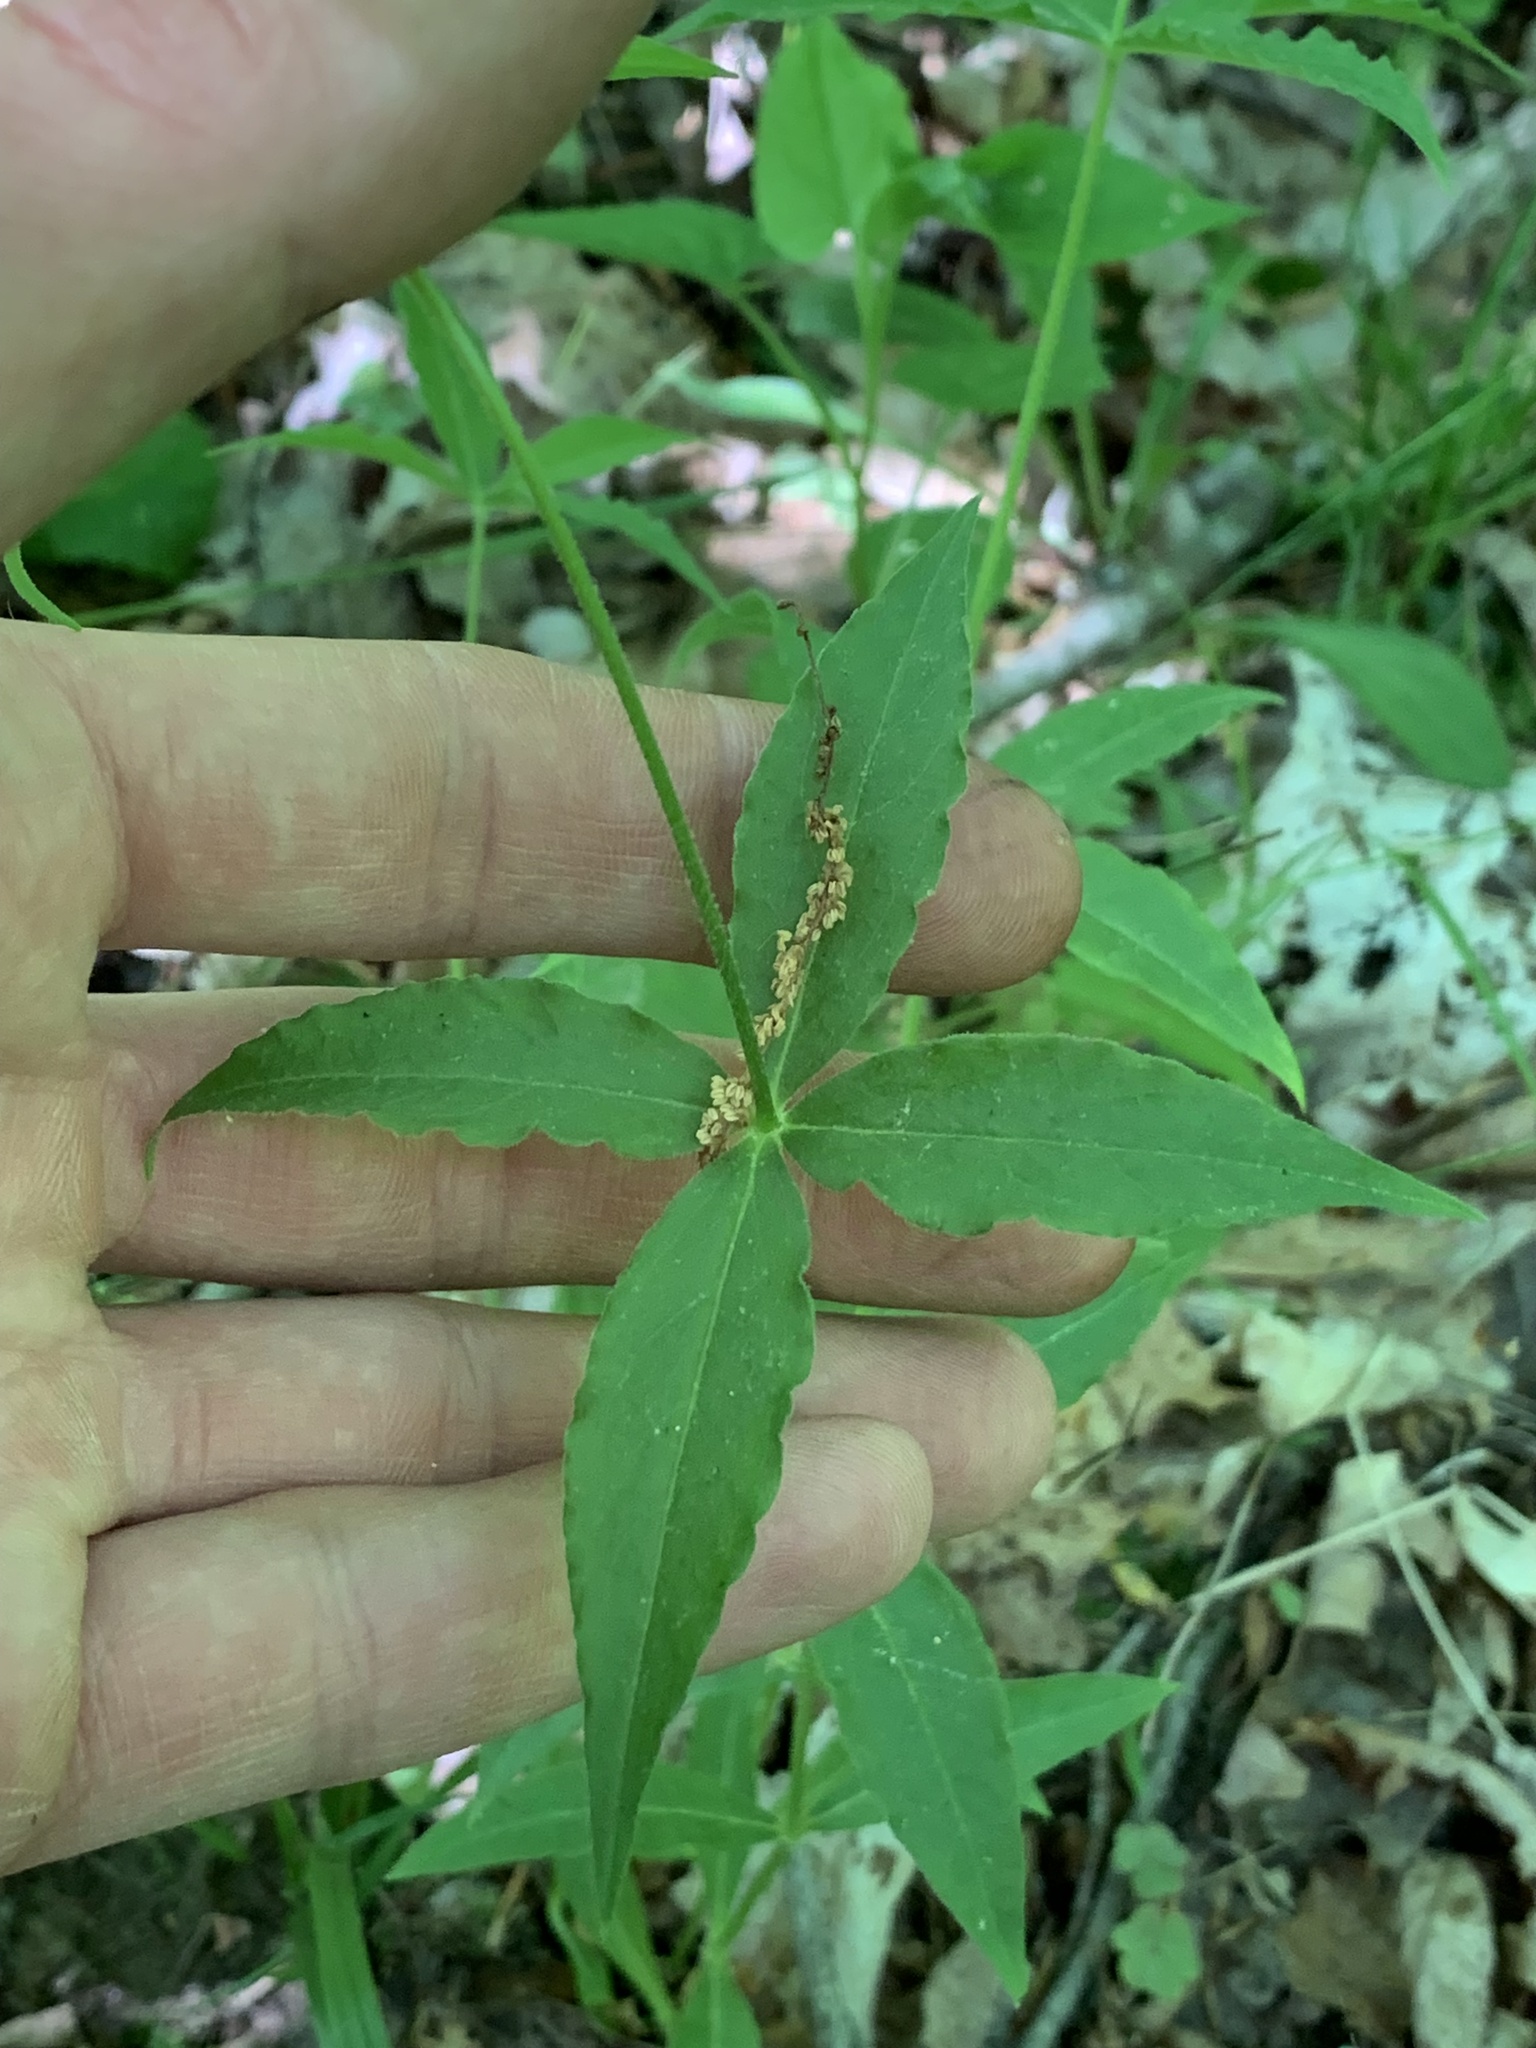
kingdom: Plantae
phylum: Tracheophyta
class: Magnoliopsida
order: Caryophyllales
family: Caryophyllaceae
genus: Silene
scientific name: Silene stellata
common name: Starry campion
